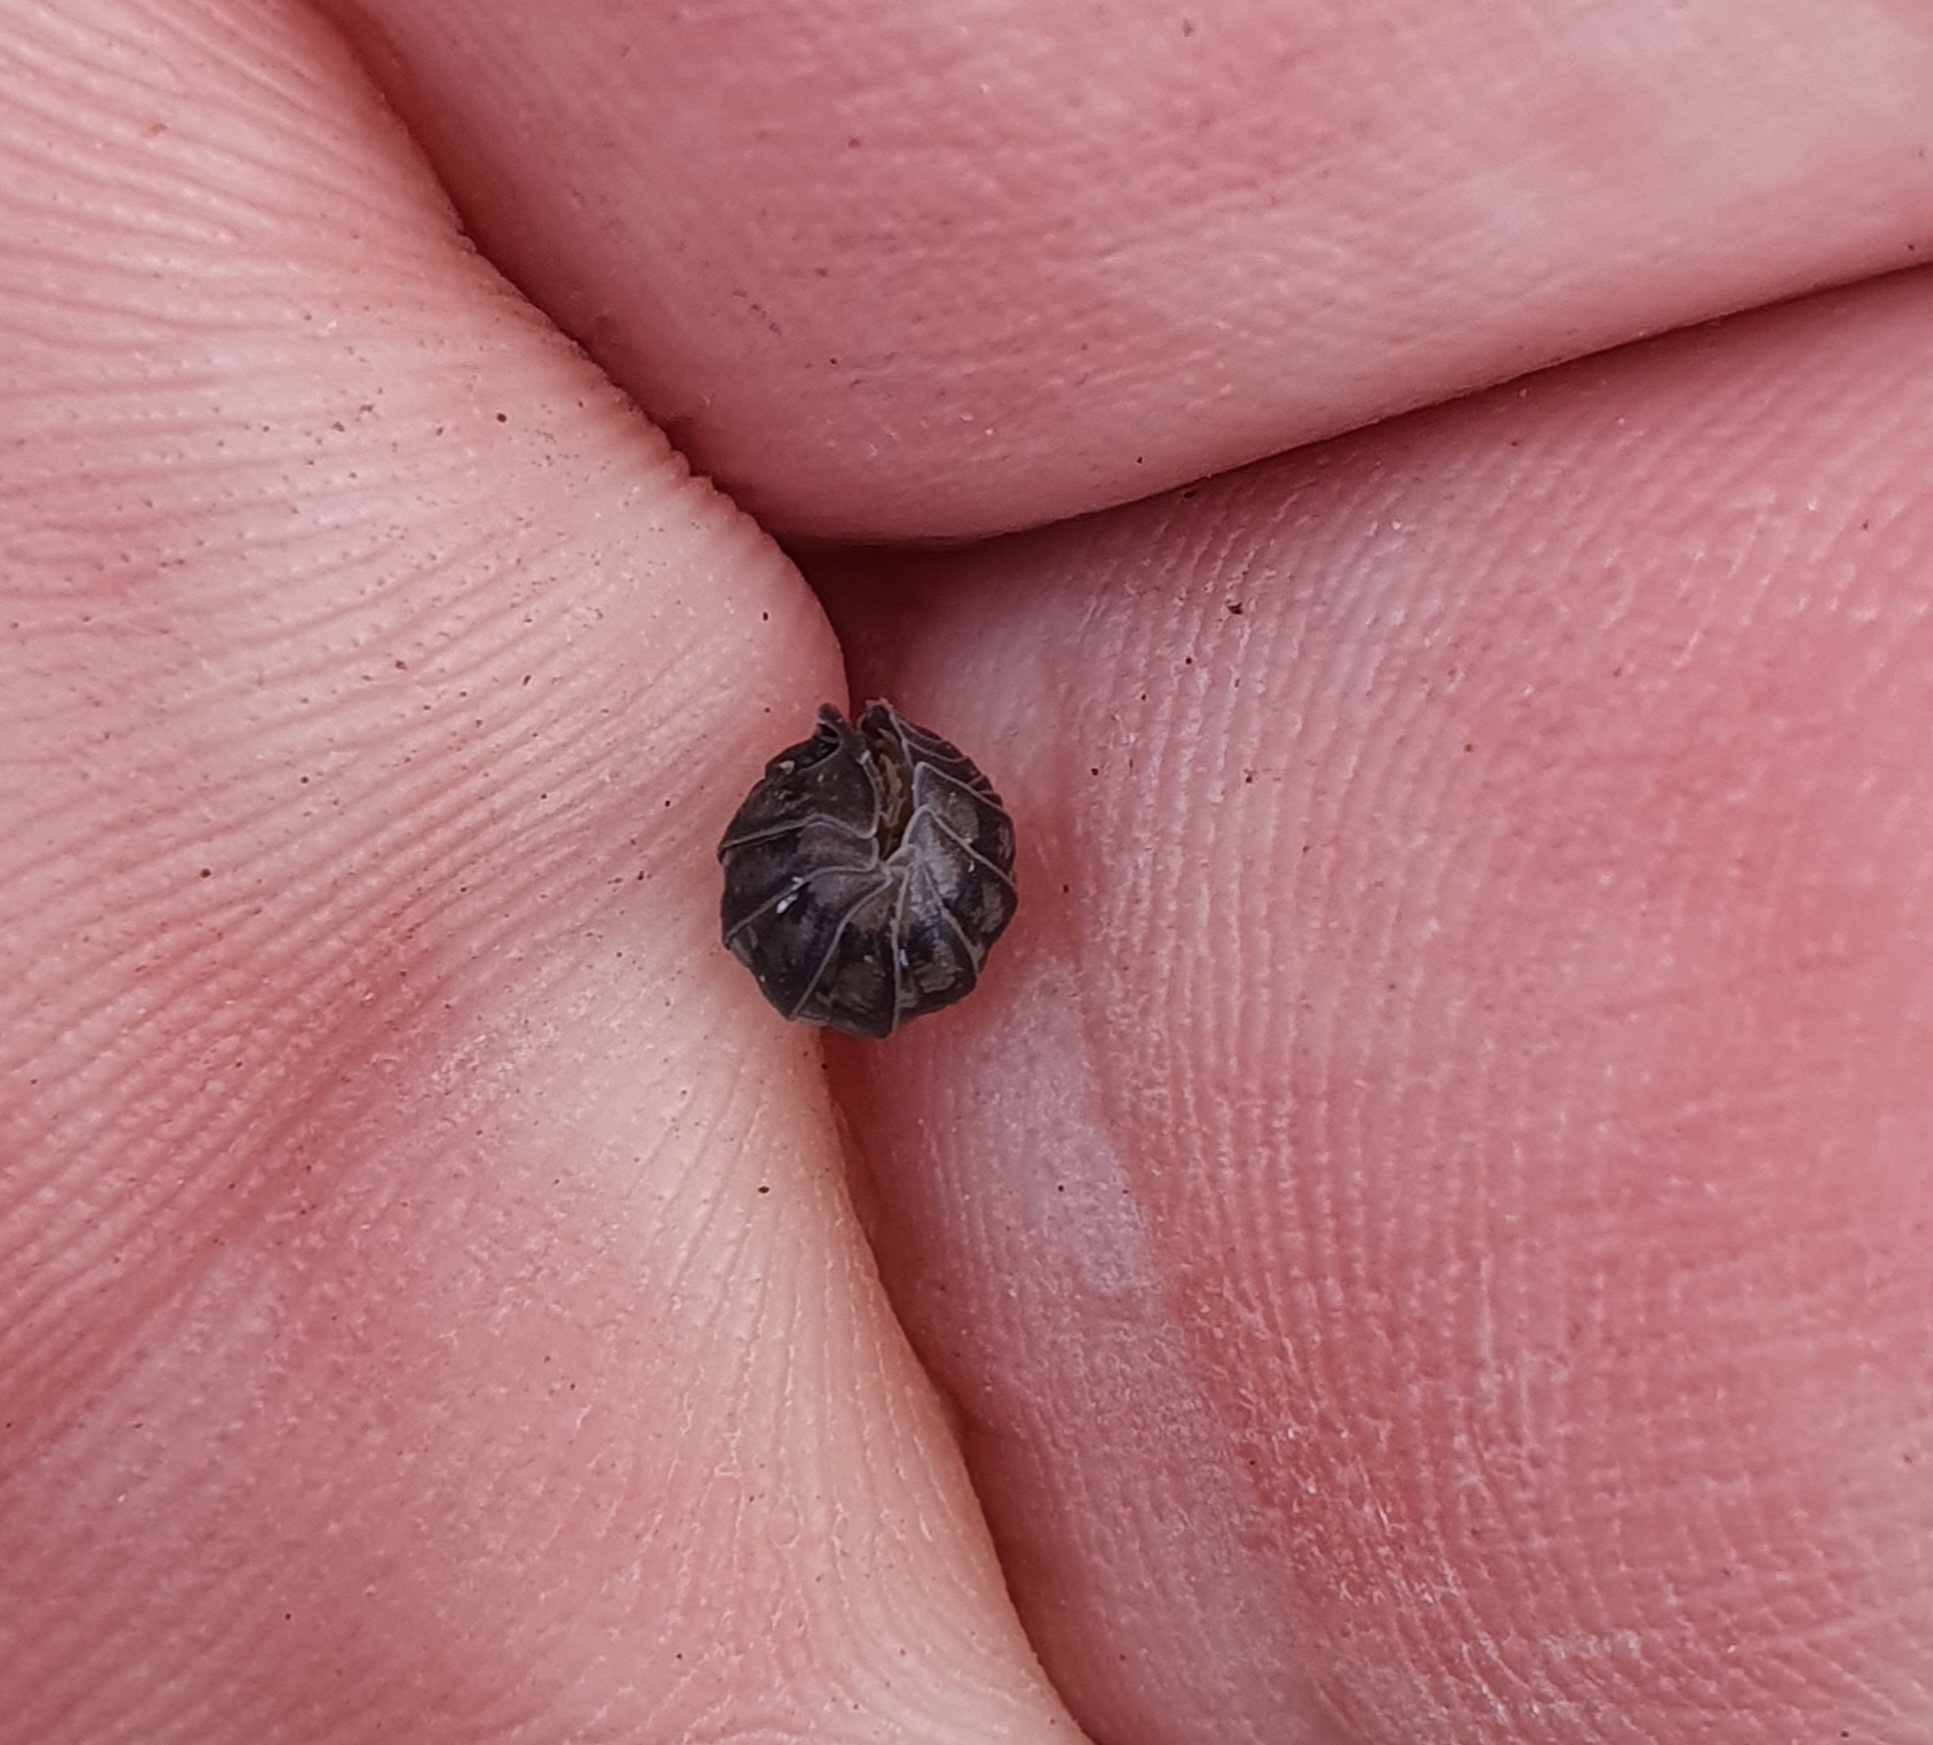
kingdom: Animalia
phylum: Arthropoda
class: Malacostraca
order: Isopoda
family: Armadillidiidae
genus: Armadillidium
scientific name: Armadillidium nasatum
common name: Isopod
